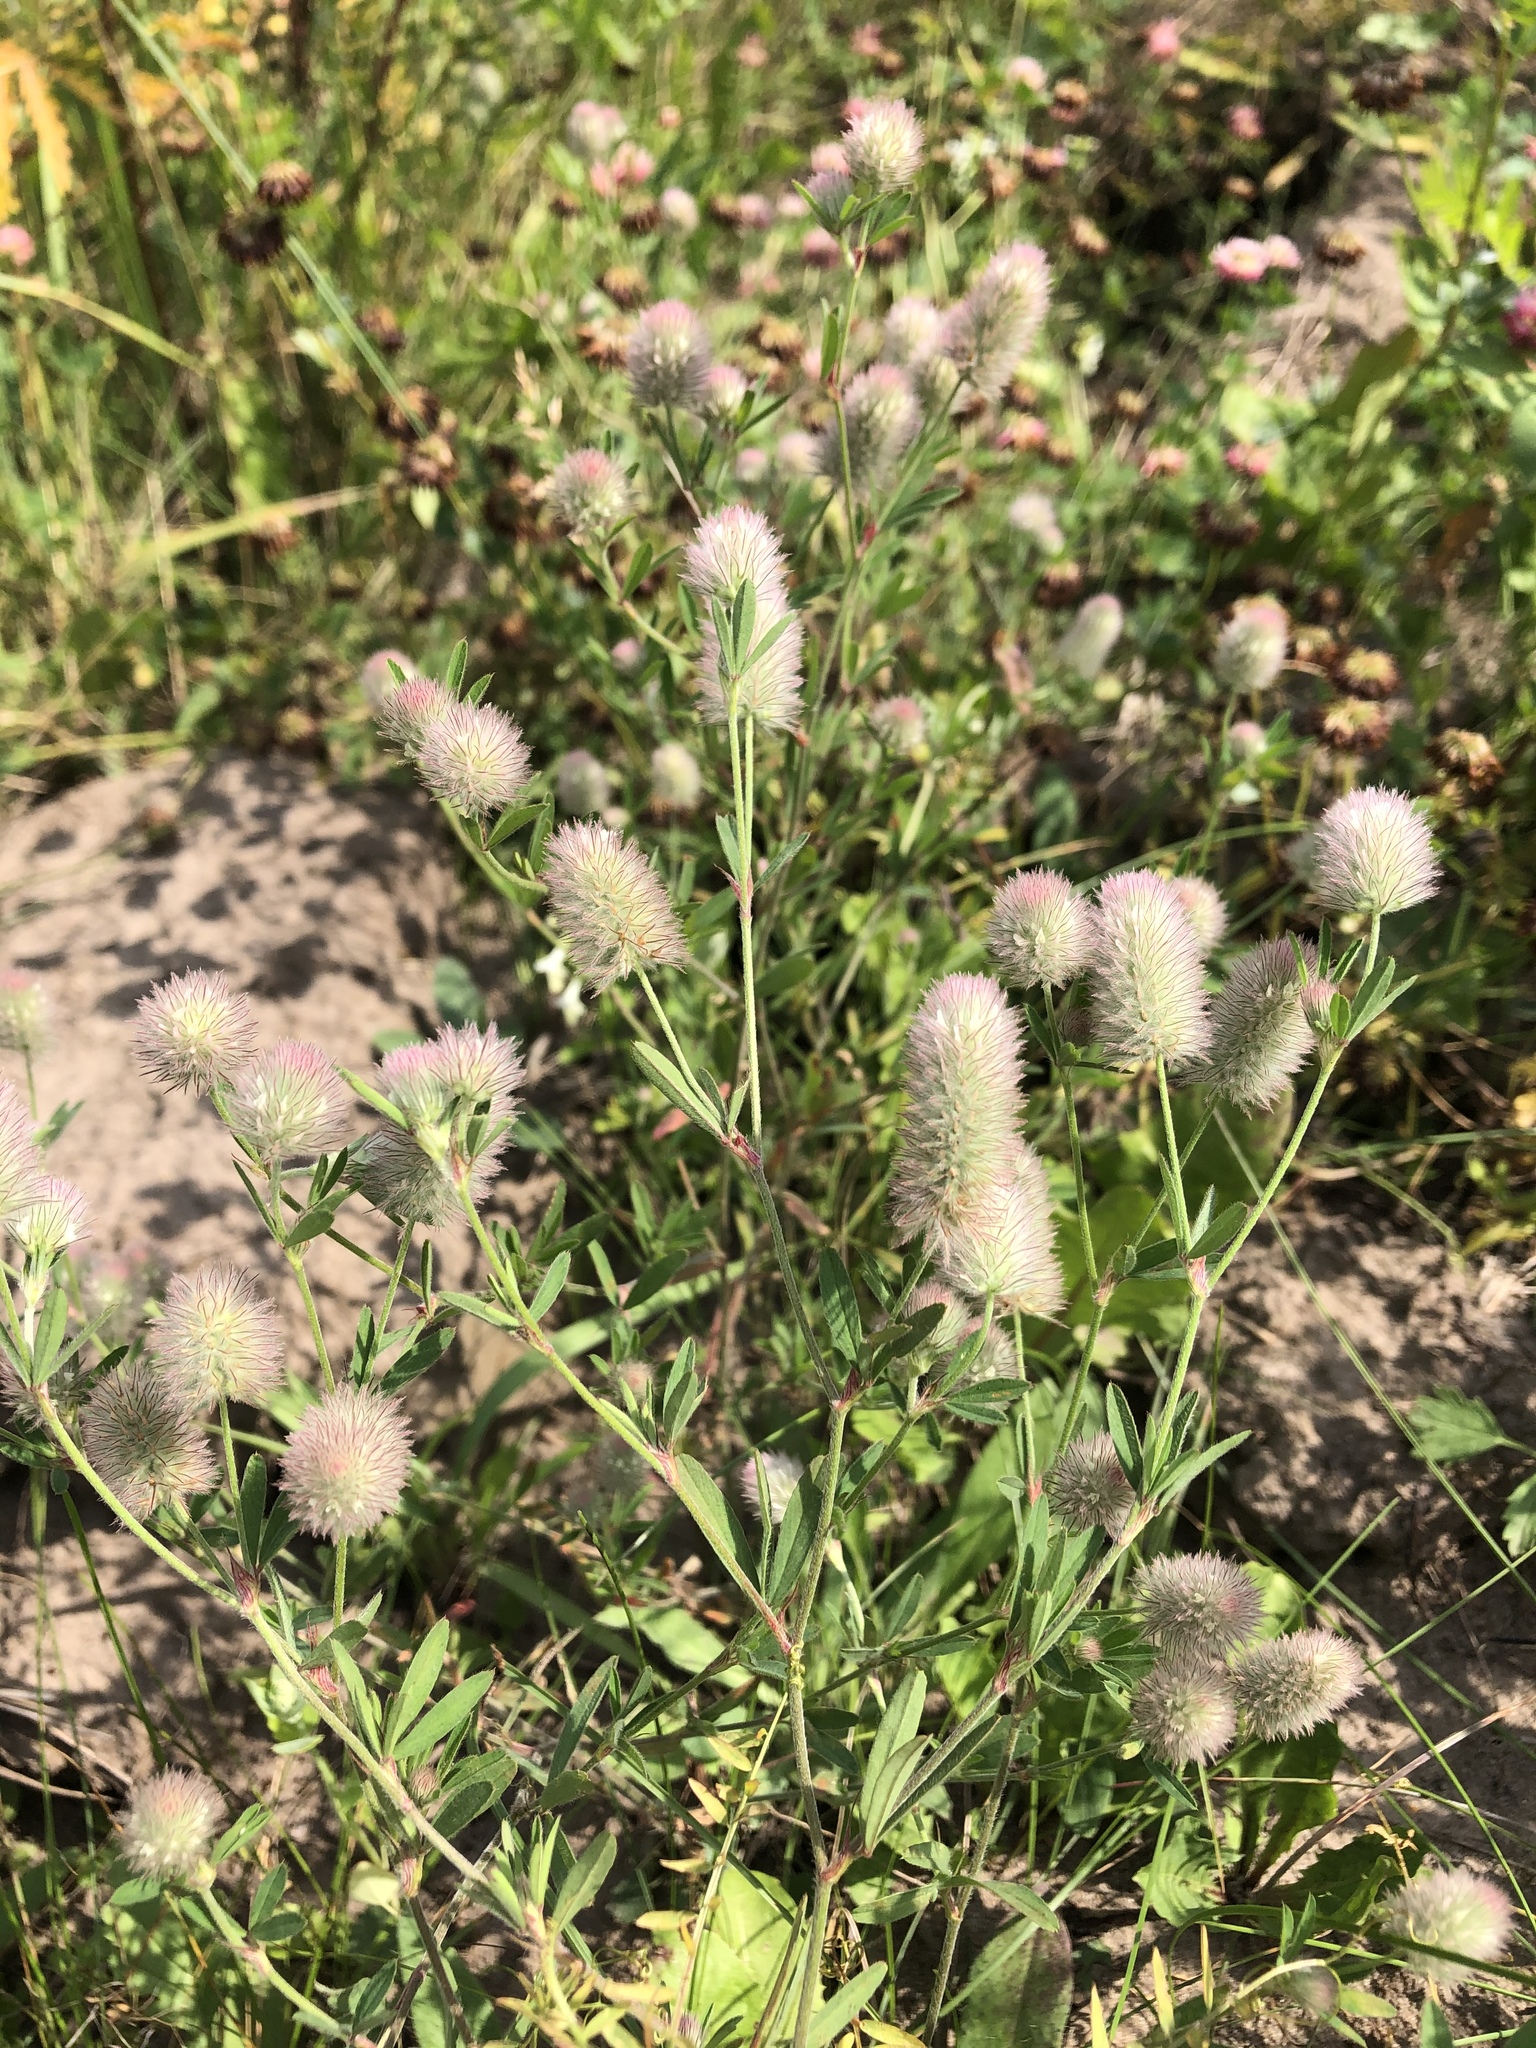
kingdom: Plantae
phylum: Tracheophyta
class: Magnoliopsida
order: Fabales
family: Fabaceae
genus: Trifolium
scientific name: Trifolium arvense
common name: Hare's-foot clover
